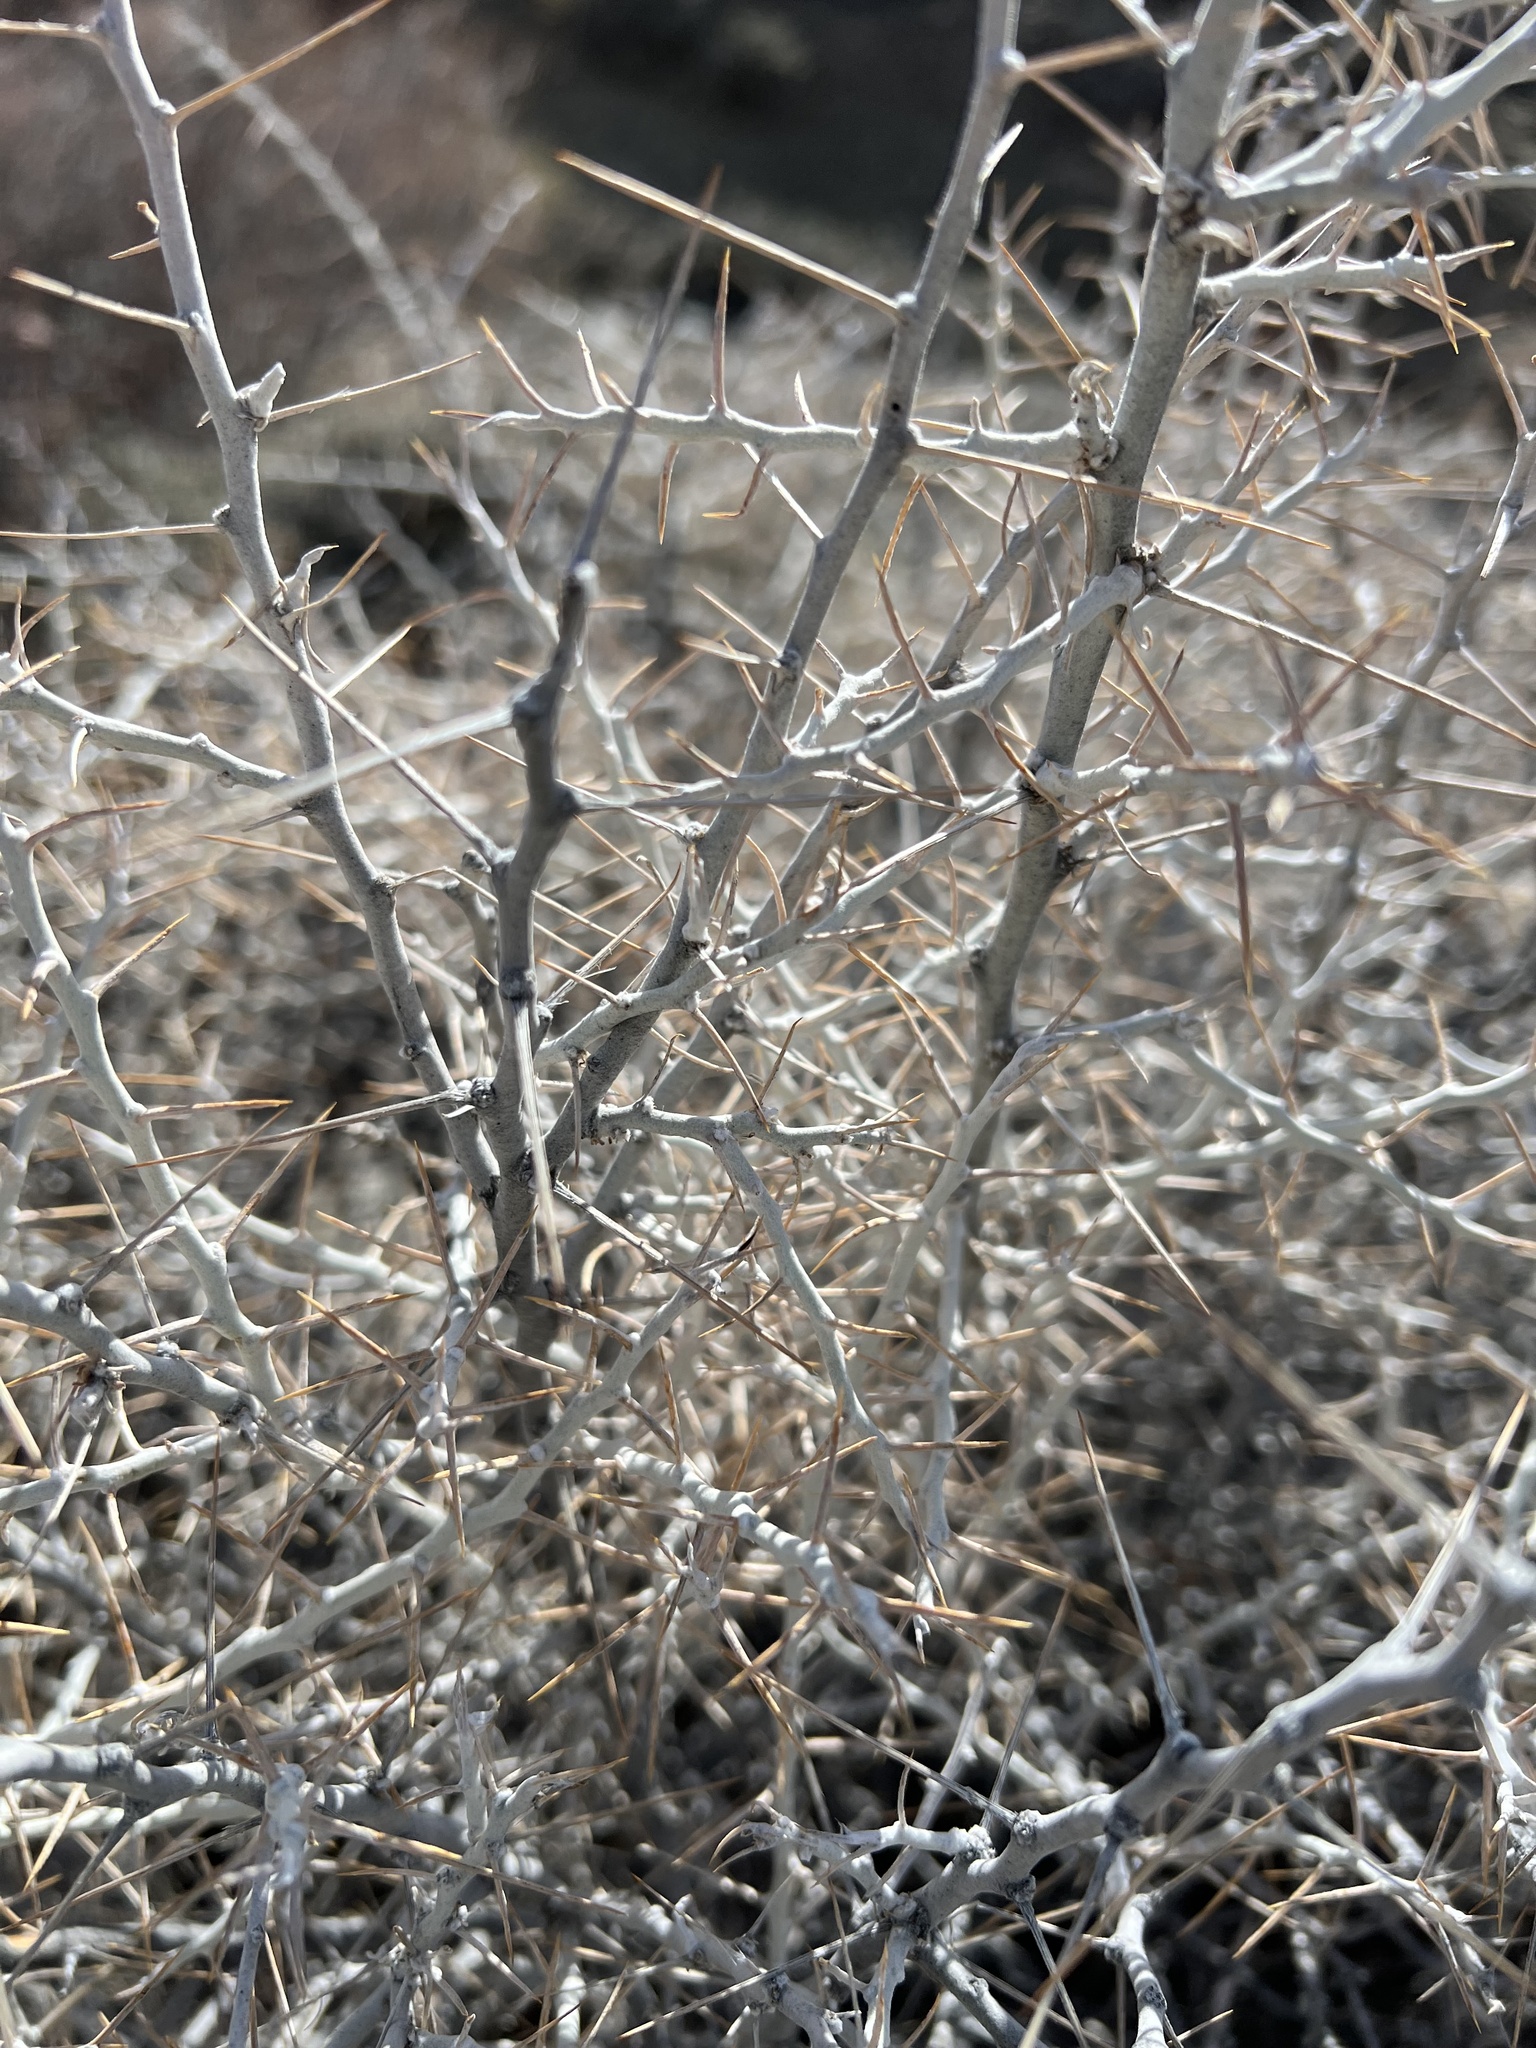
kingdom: Plantae
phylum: Tracheophyta
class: Magnoliopsida
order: Asterales
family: Asteraceae
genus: Tetradymia
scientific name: Tetradymia axillaris
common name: Long-spine horsebrush
